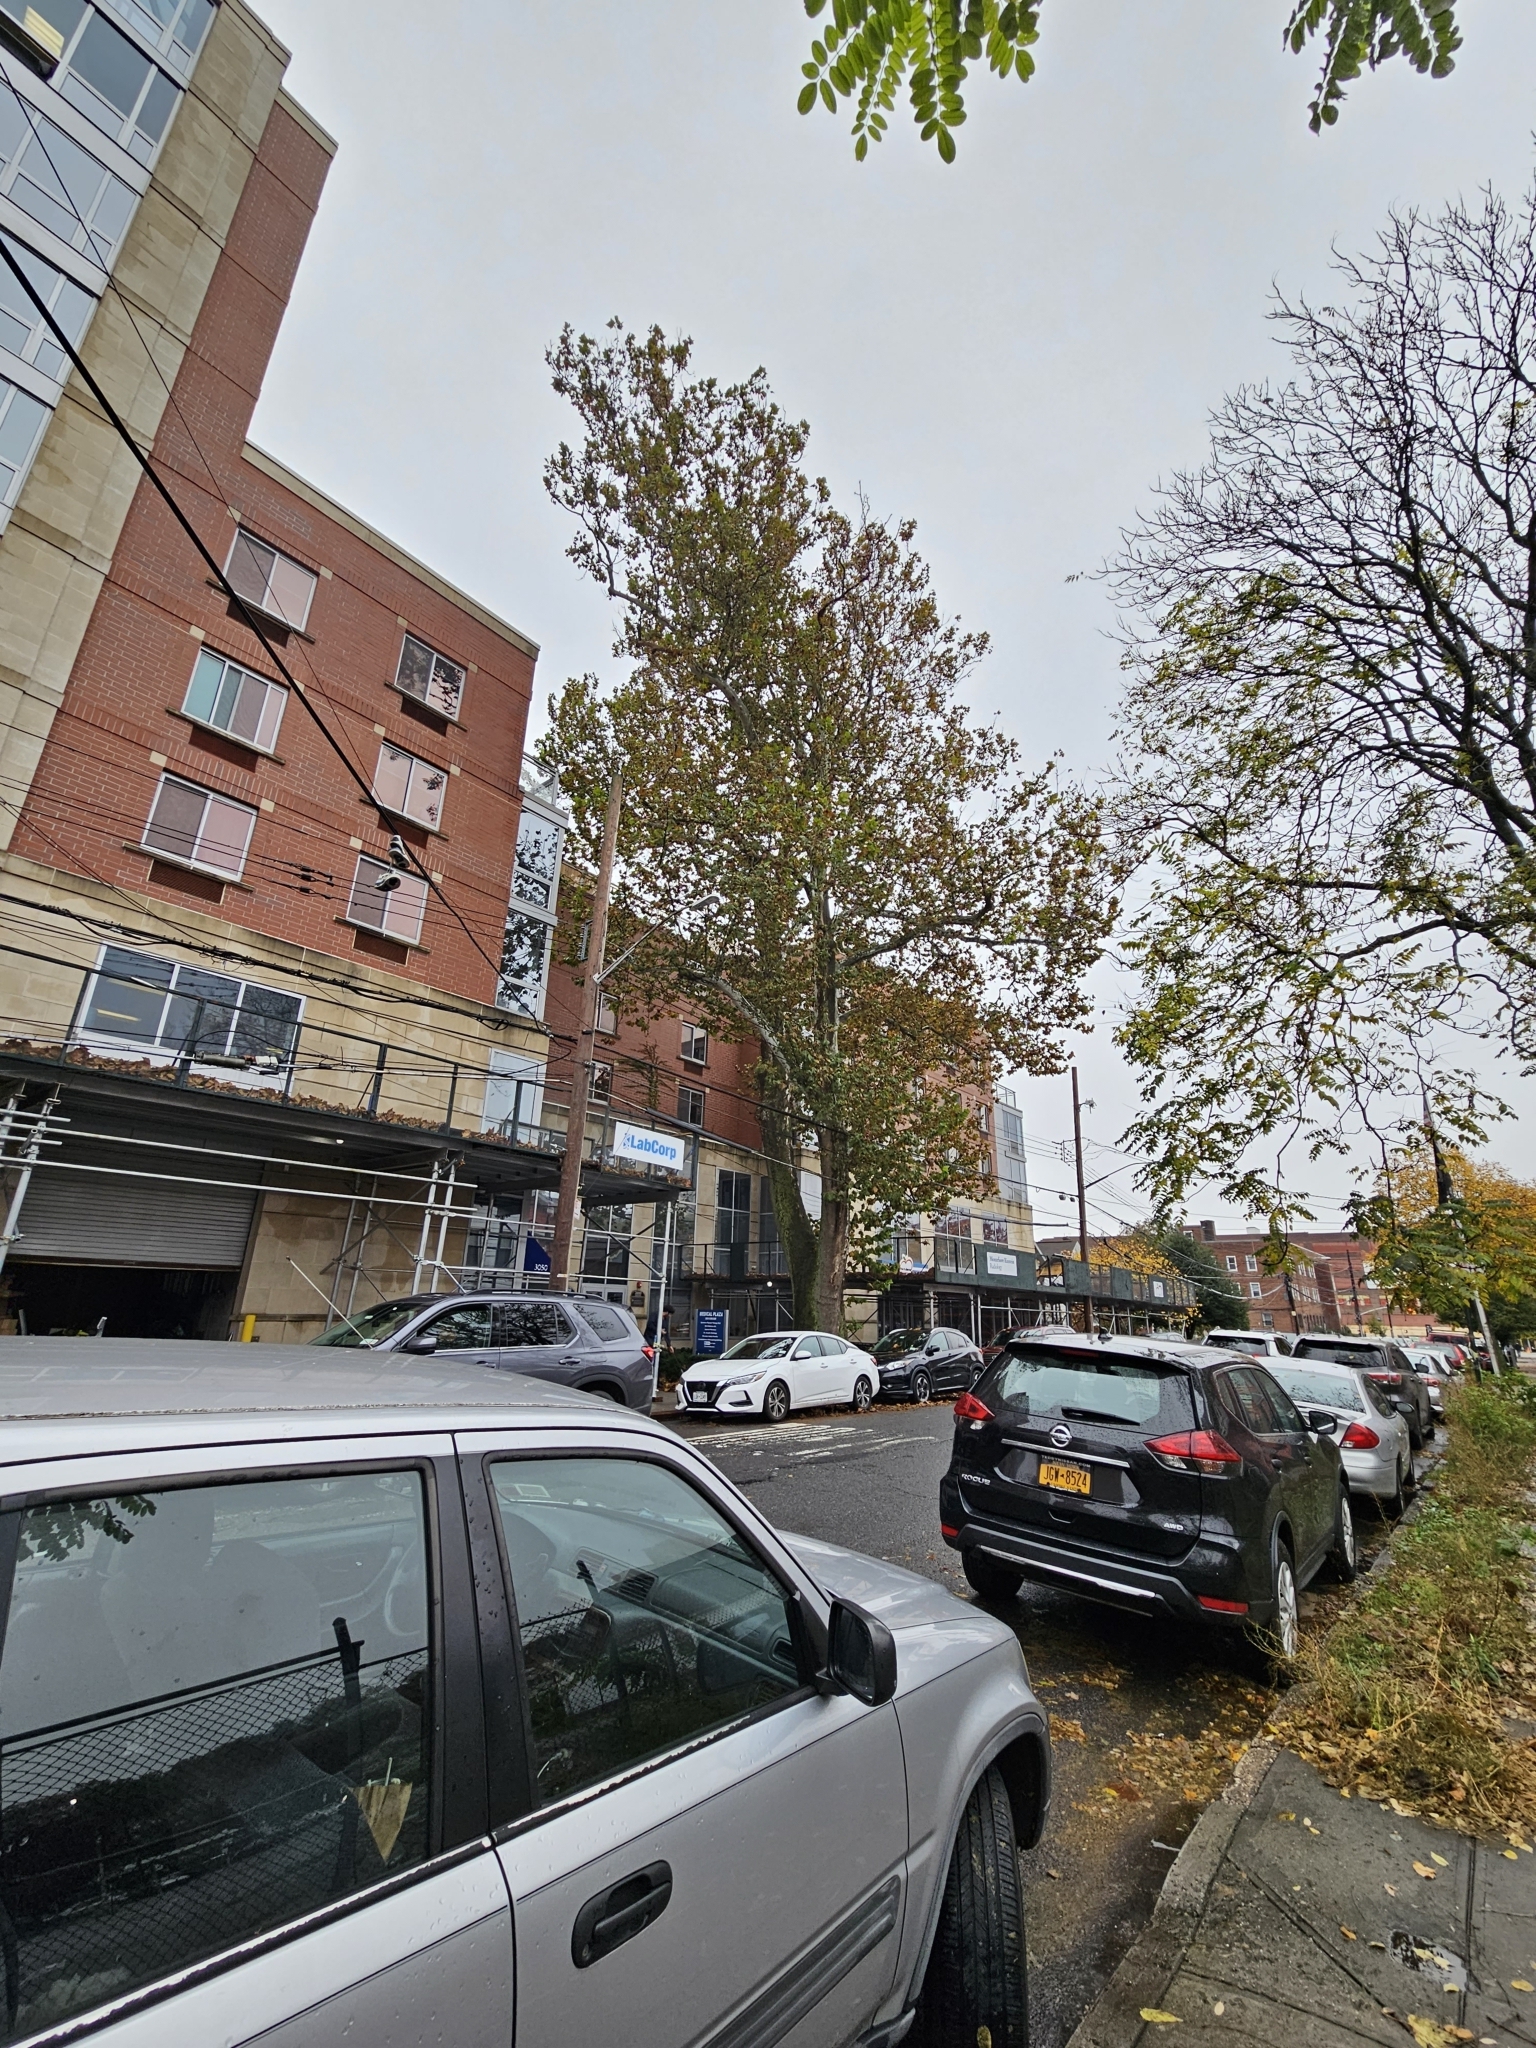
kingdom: Plantae
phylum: Tracheophyta
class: Magnoliopsida
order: Proteales
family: Platanaceae
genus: Platanus
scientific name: Platanus occidentalis
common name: American sycamore
